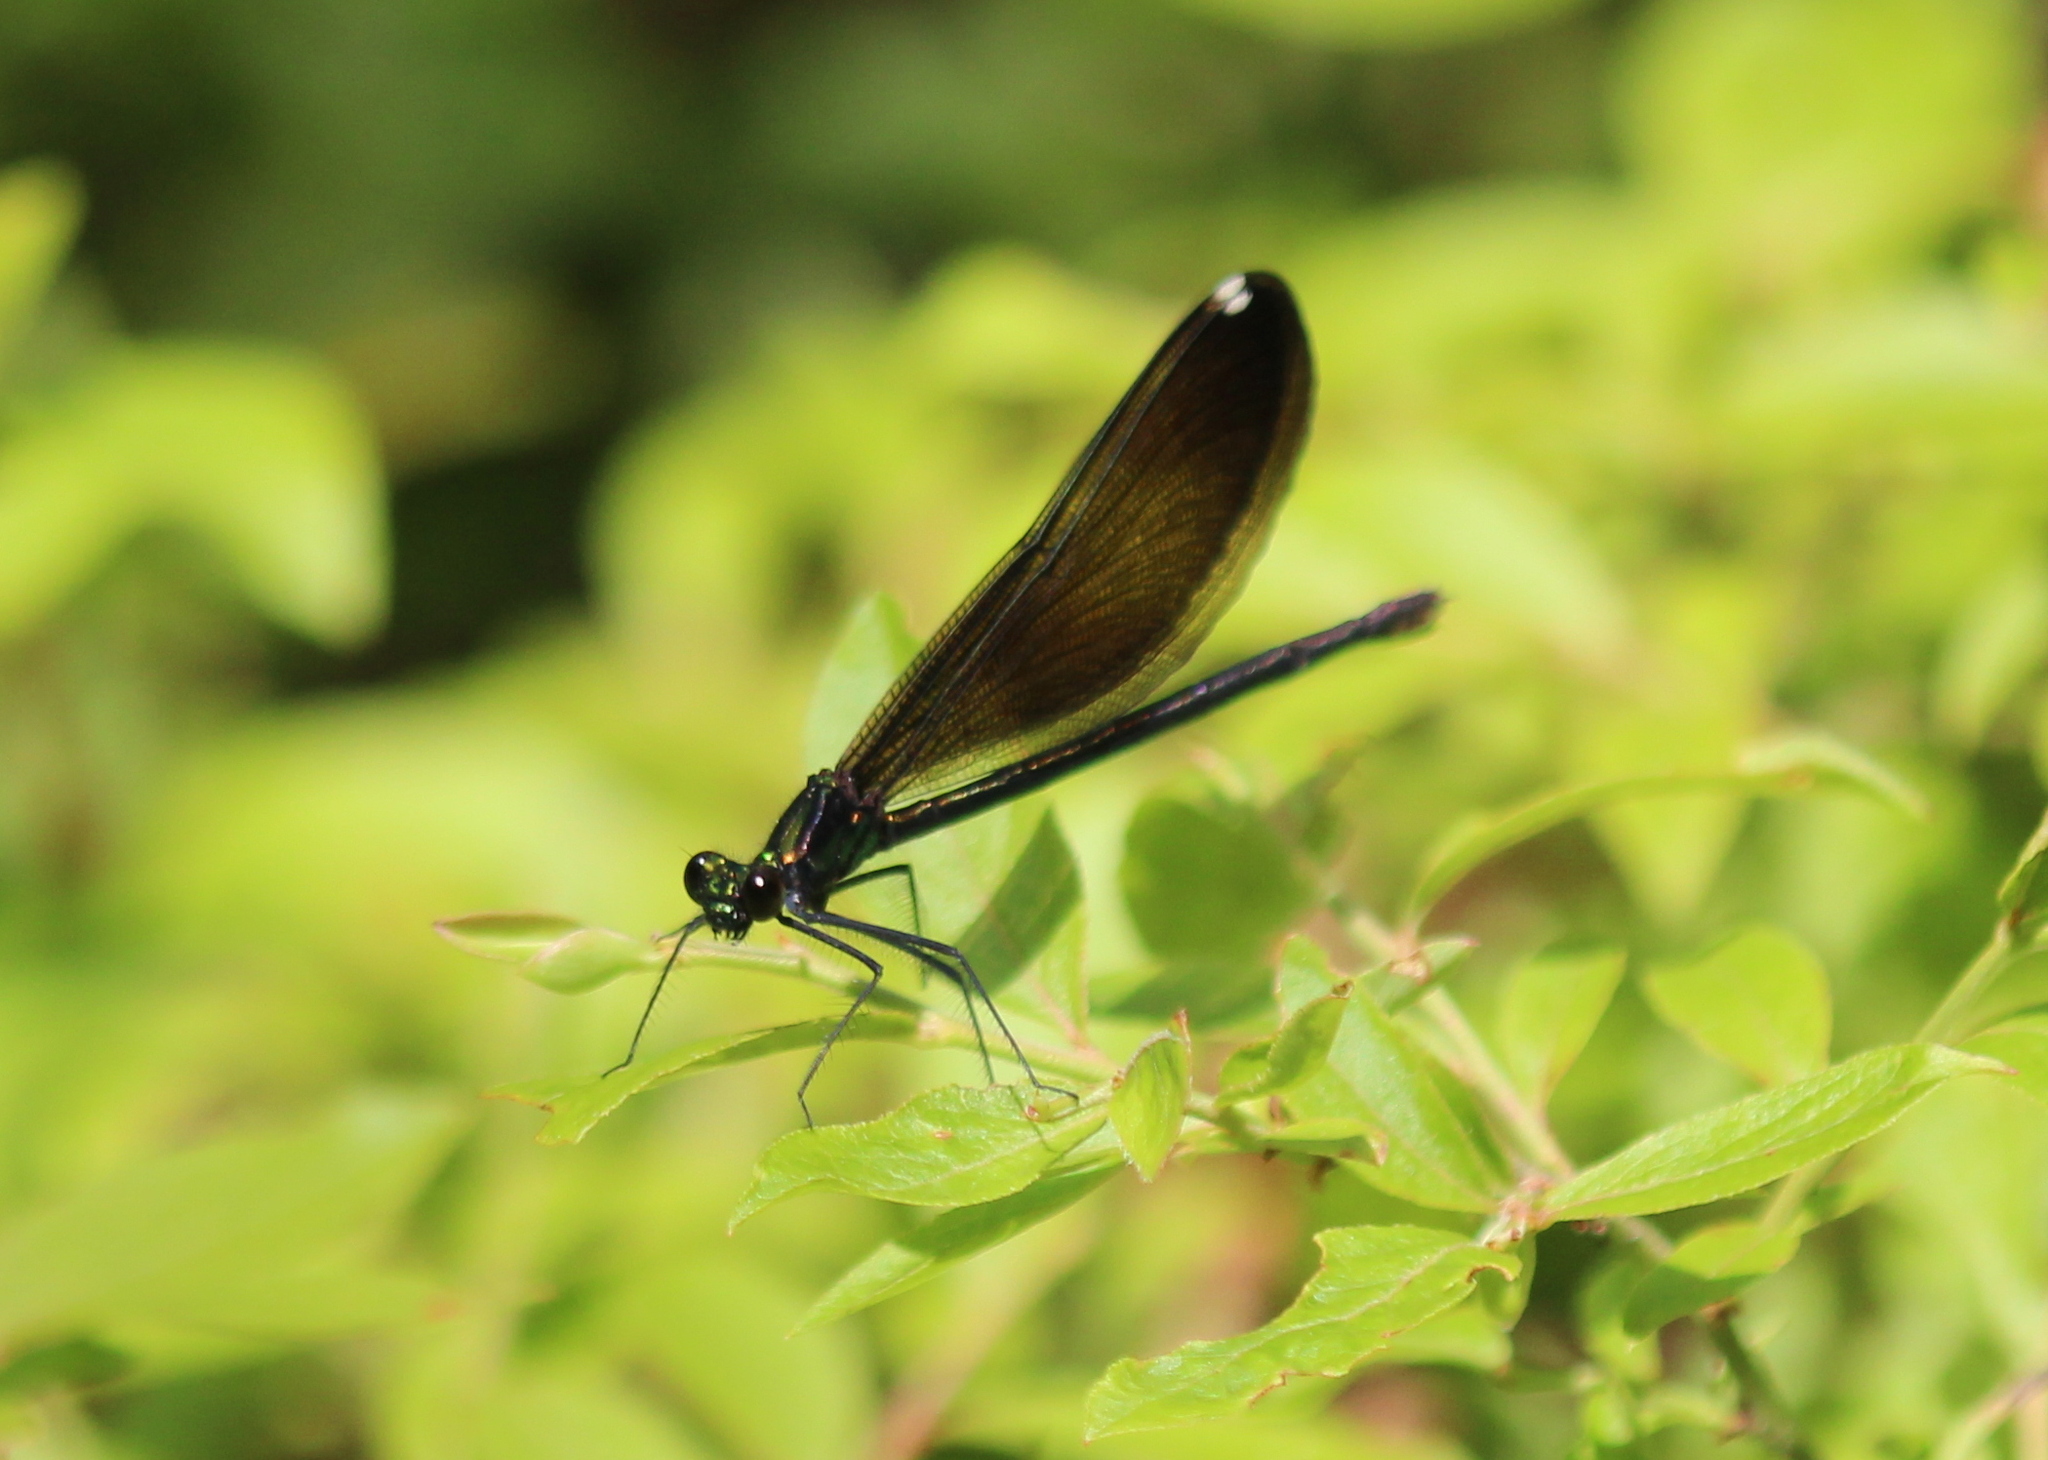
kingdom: Animalia
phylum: Arthropoda
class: Insecta
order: Odonata
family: Calopterygidae
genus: Calopteryx
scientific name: Calopteryx maculata
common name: Ebony jewelwing
